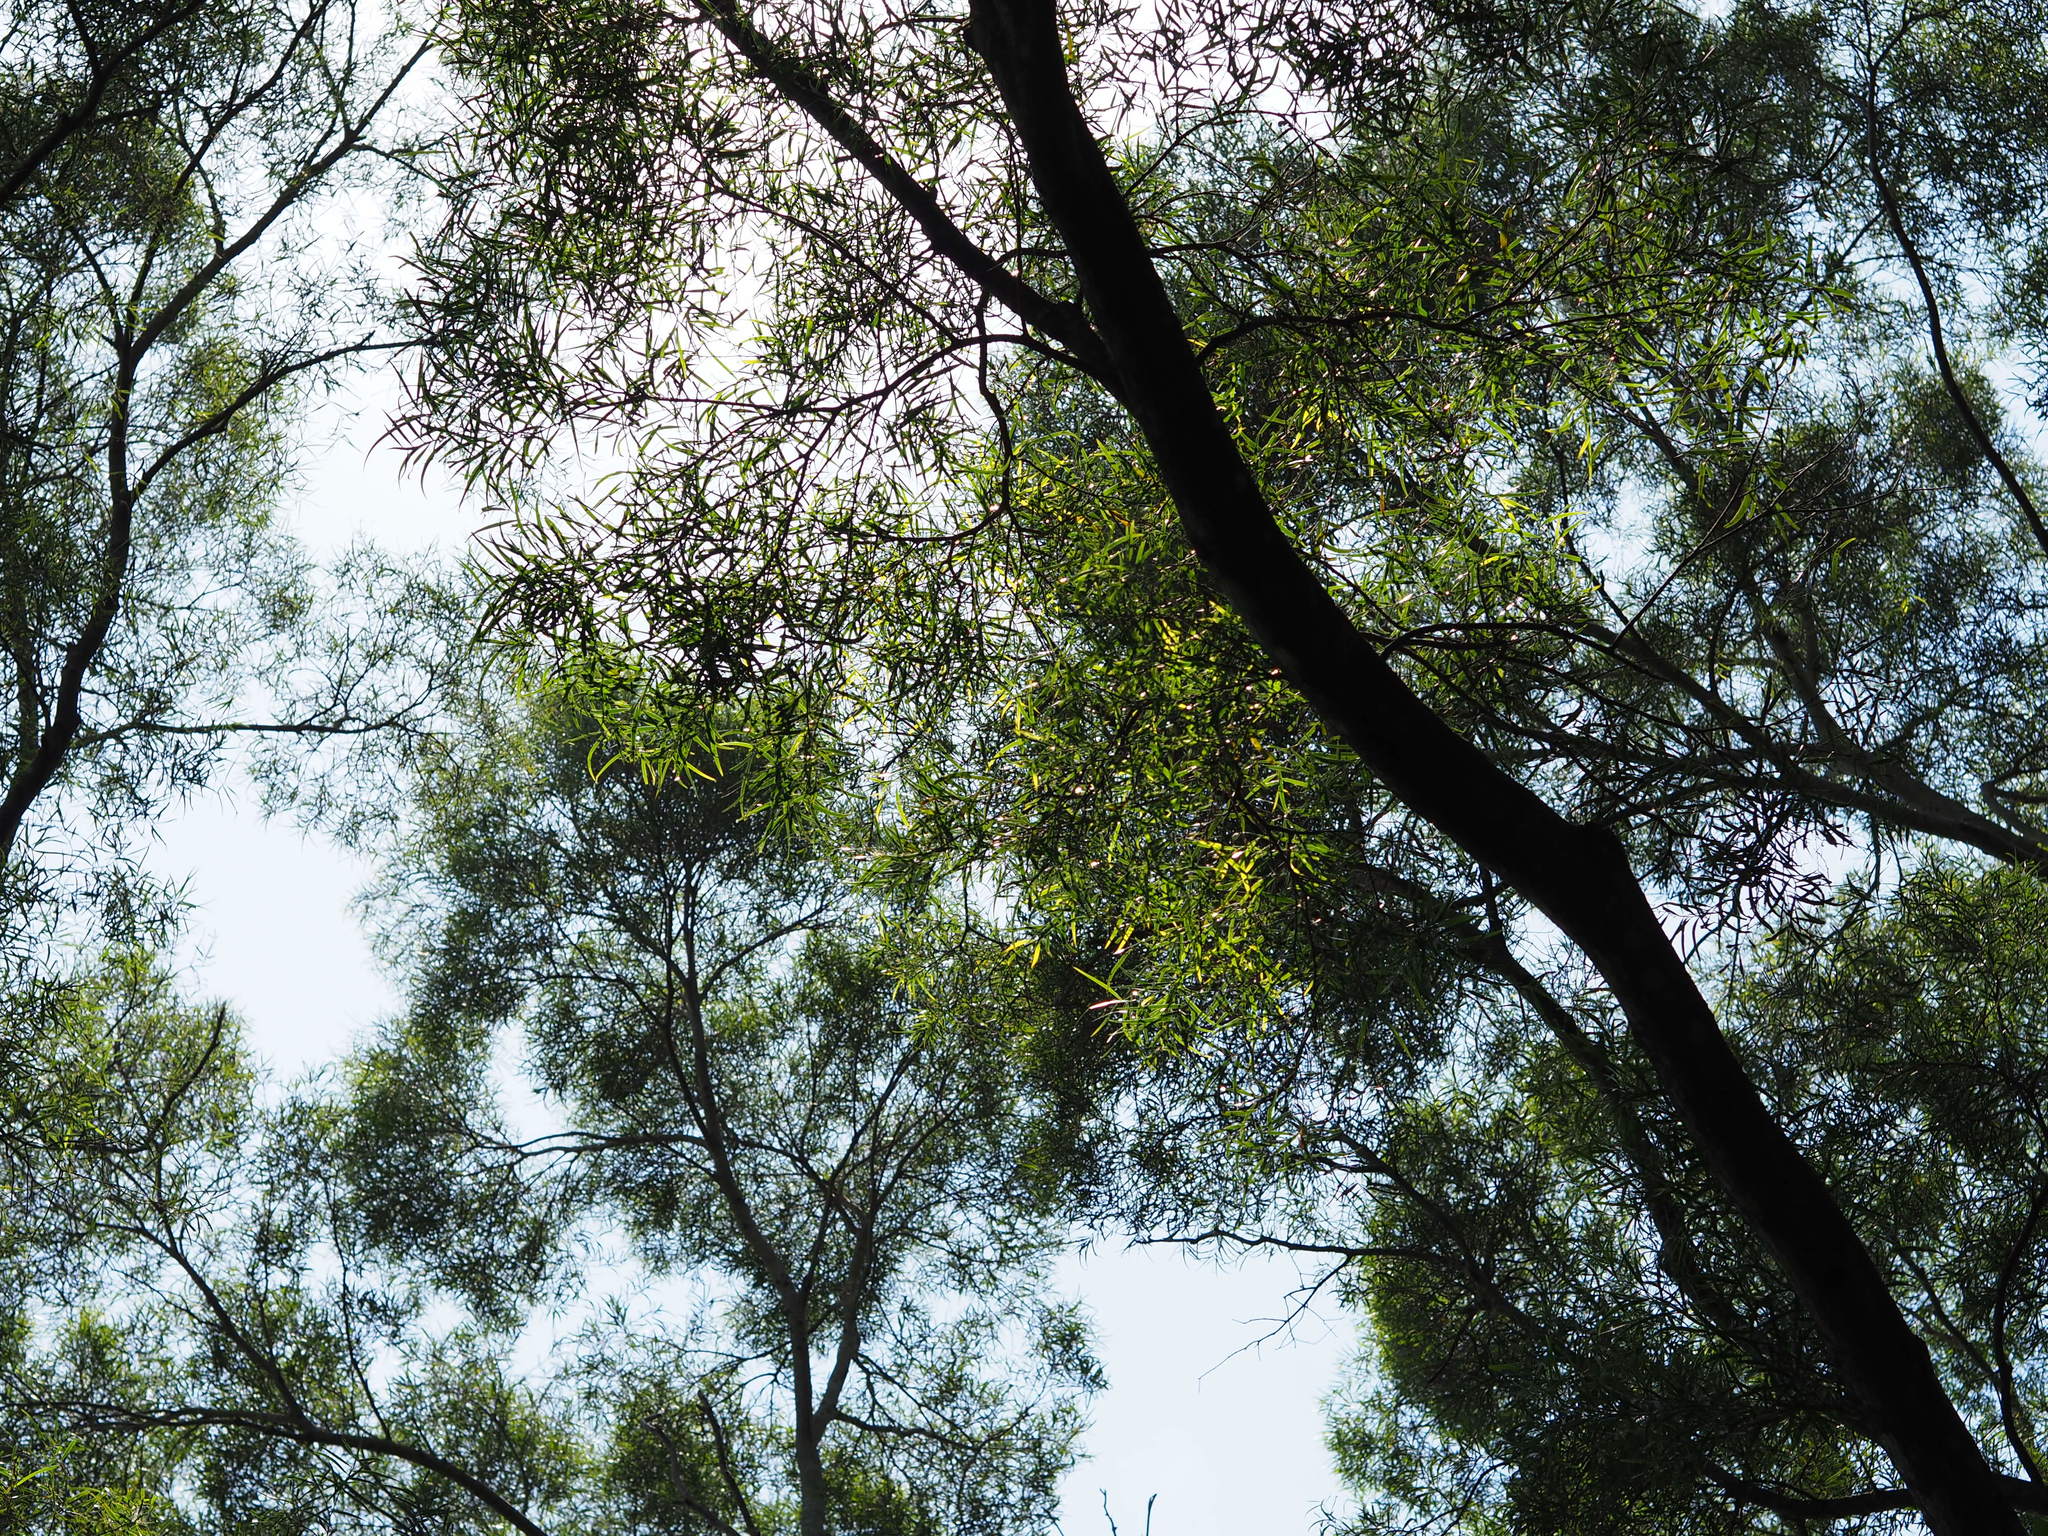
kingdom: Plantae
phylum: Tracheophyta
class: Magnoliopsida
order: Fabales
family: Fabaceae
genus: Acacia
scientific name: Acacia confusa
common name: Formosan koa
